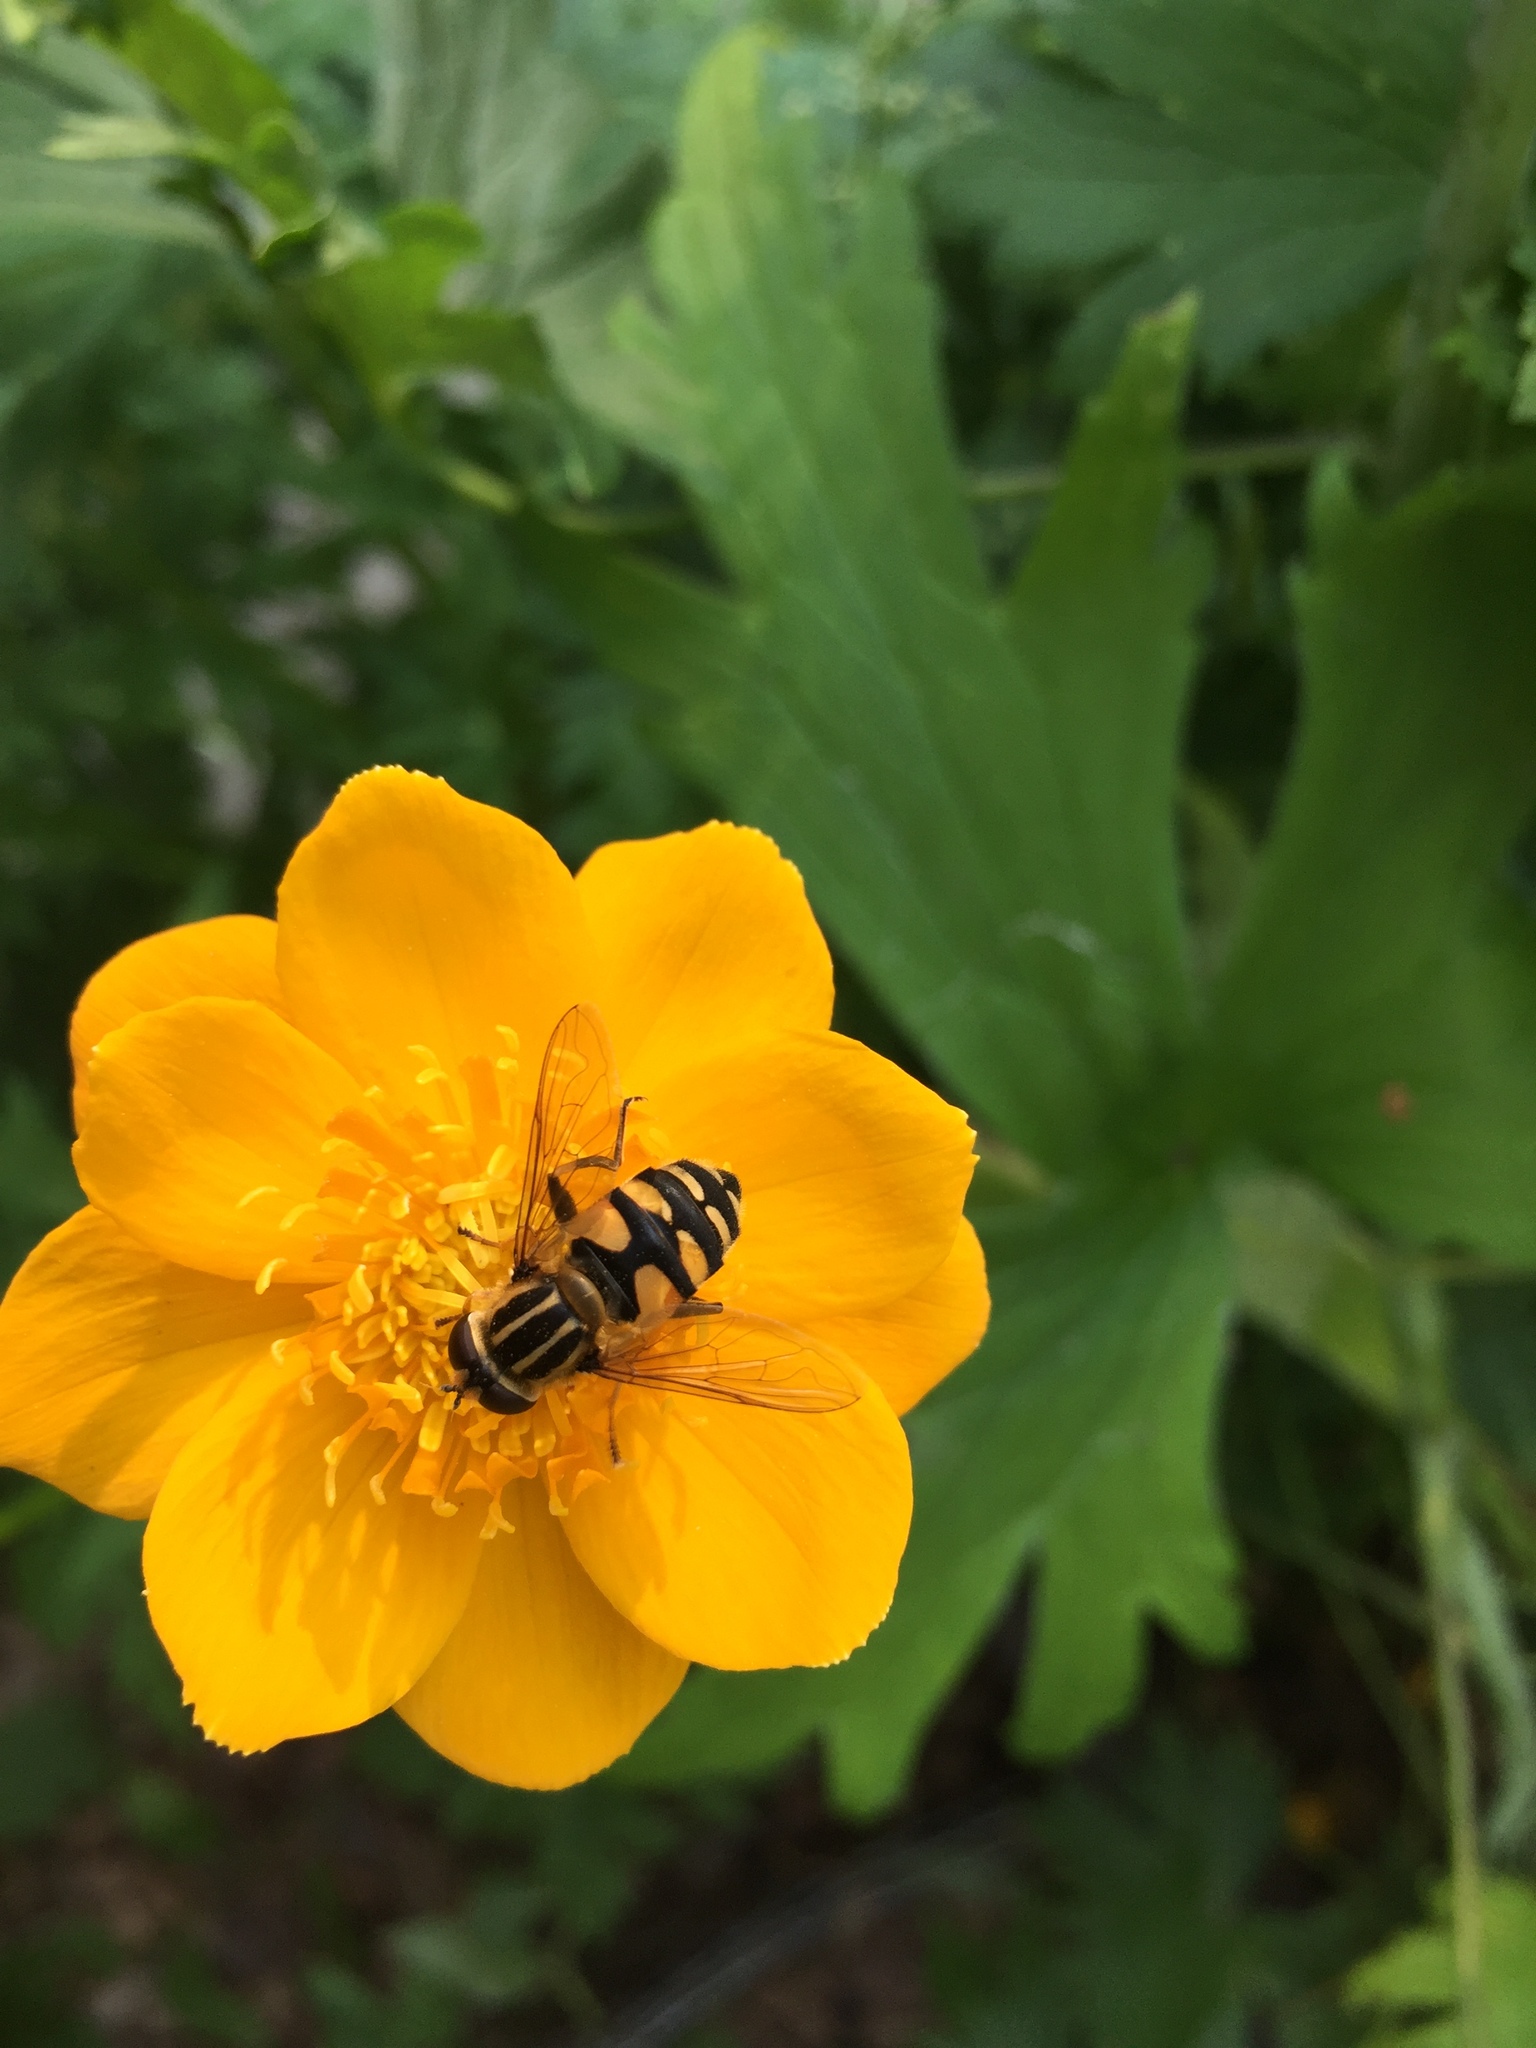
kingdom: Animalia
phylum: Arthropoda
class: Insecta
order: Diptera
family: Syrphidae
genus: Helophilus
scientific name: Helophilus neoaffinis
